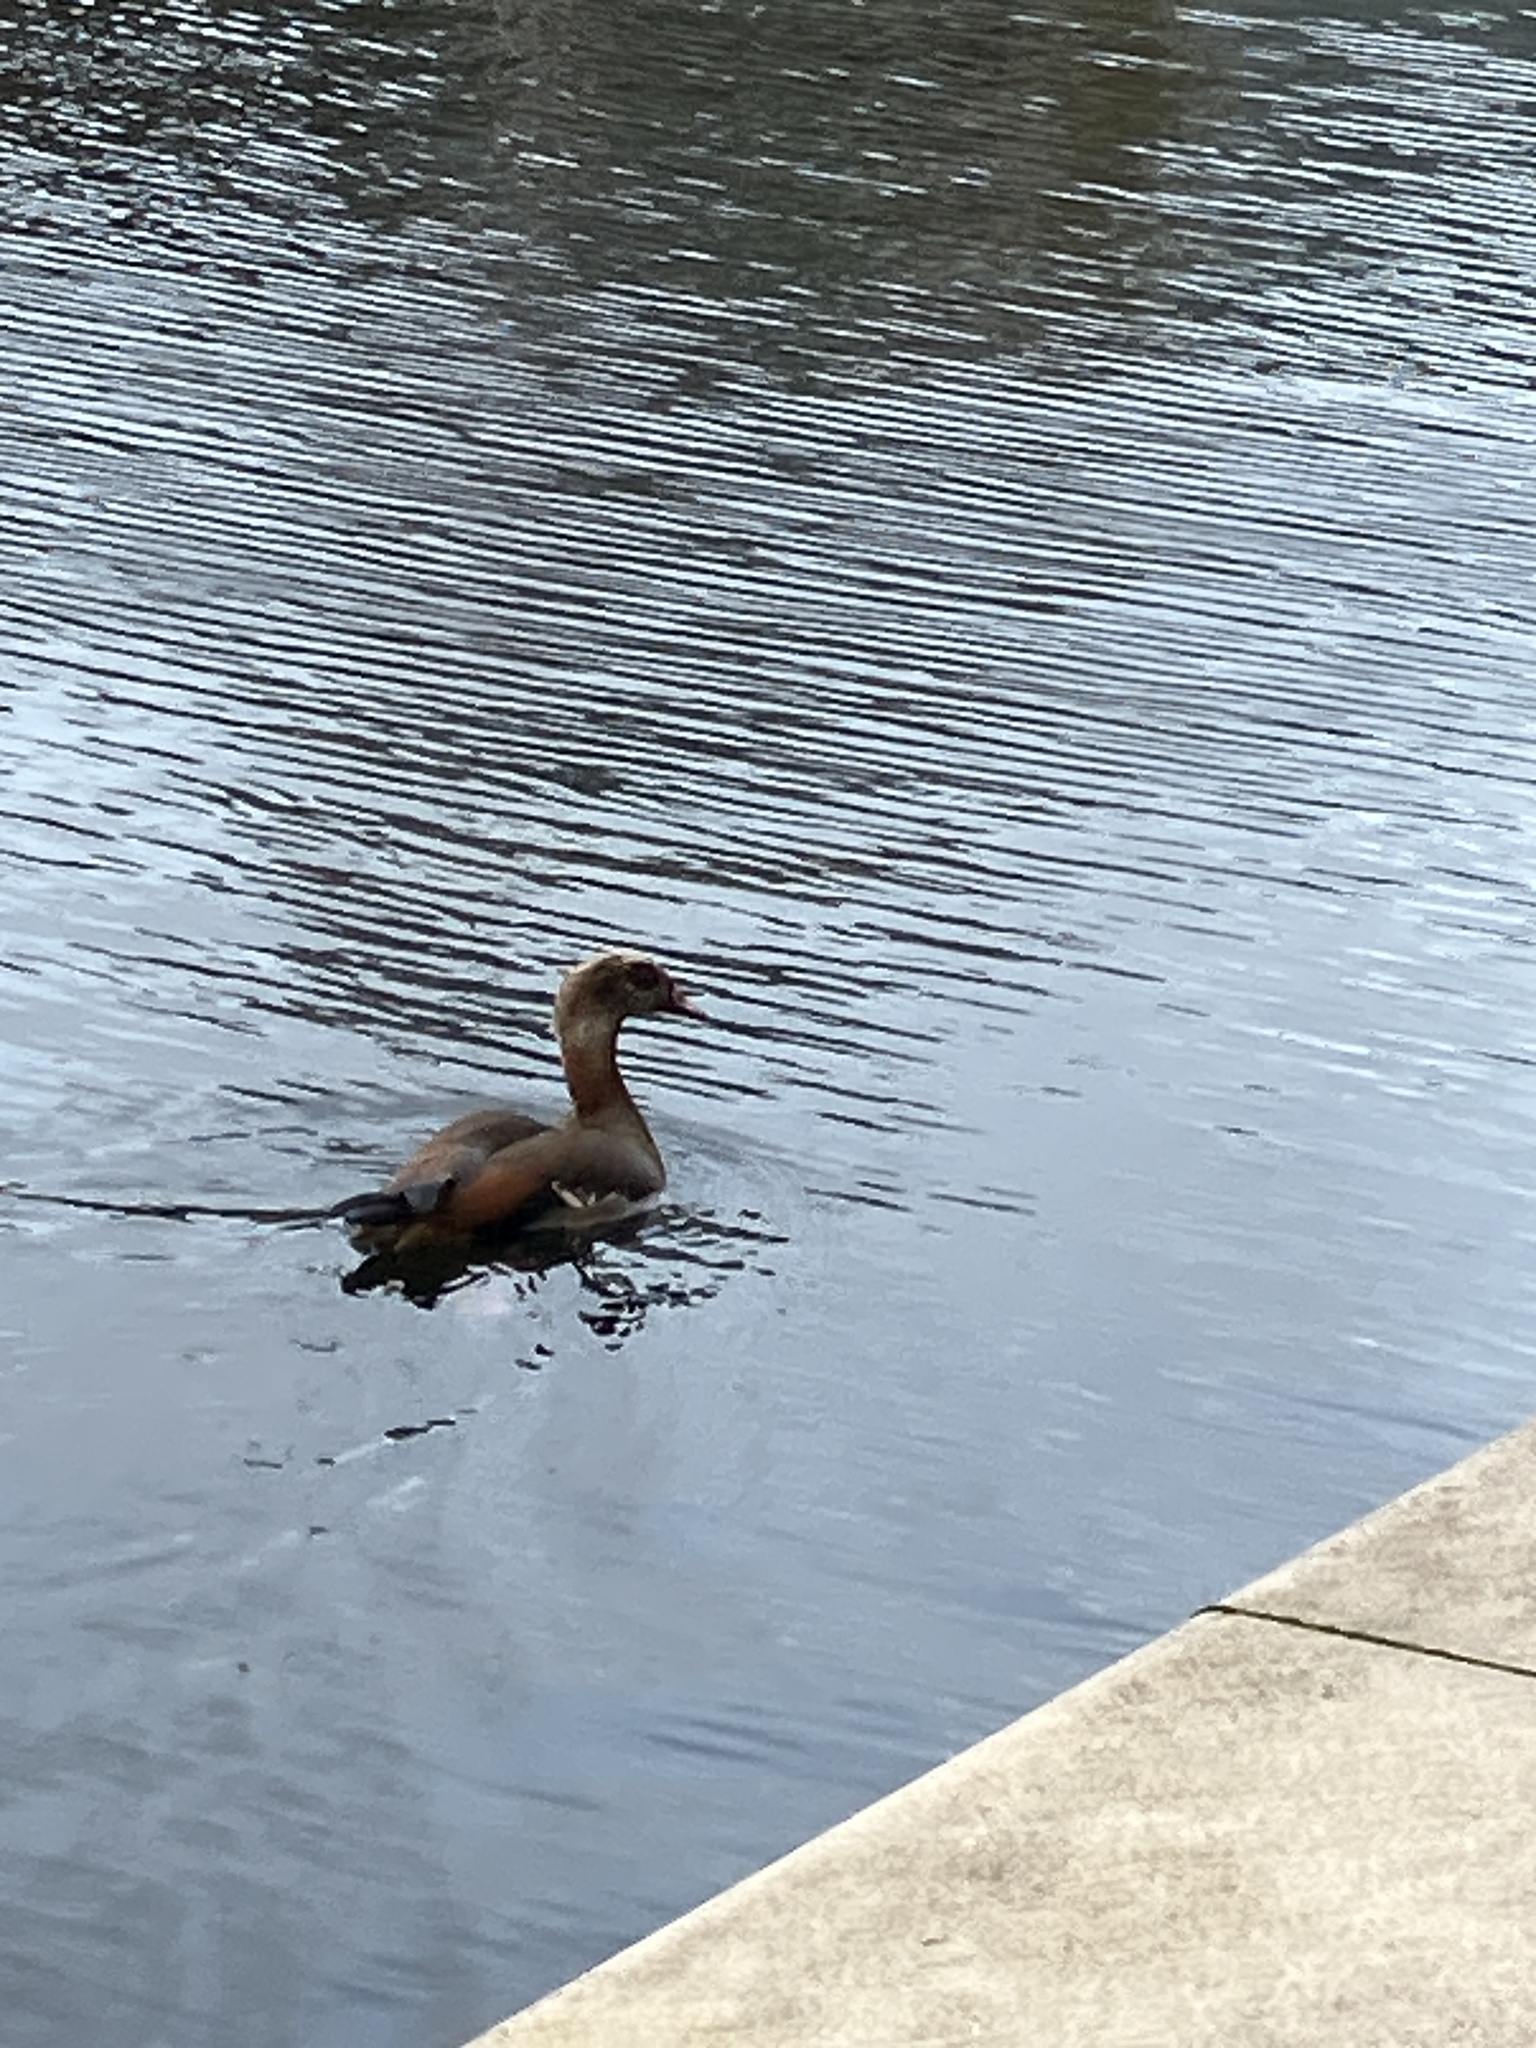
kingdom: Animalia
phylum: Chordata
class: Aves
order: Anseriformes
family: Anatidae
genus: Alopochen
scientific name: Alopochen aegyptiaca
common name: Egyptian goose
